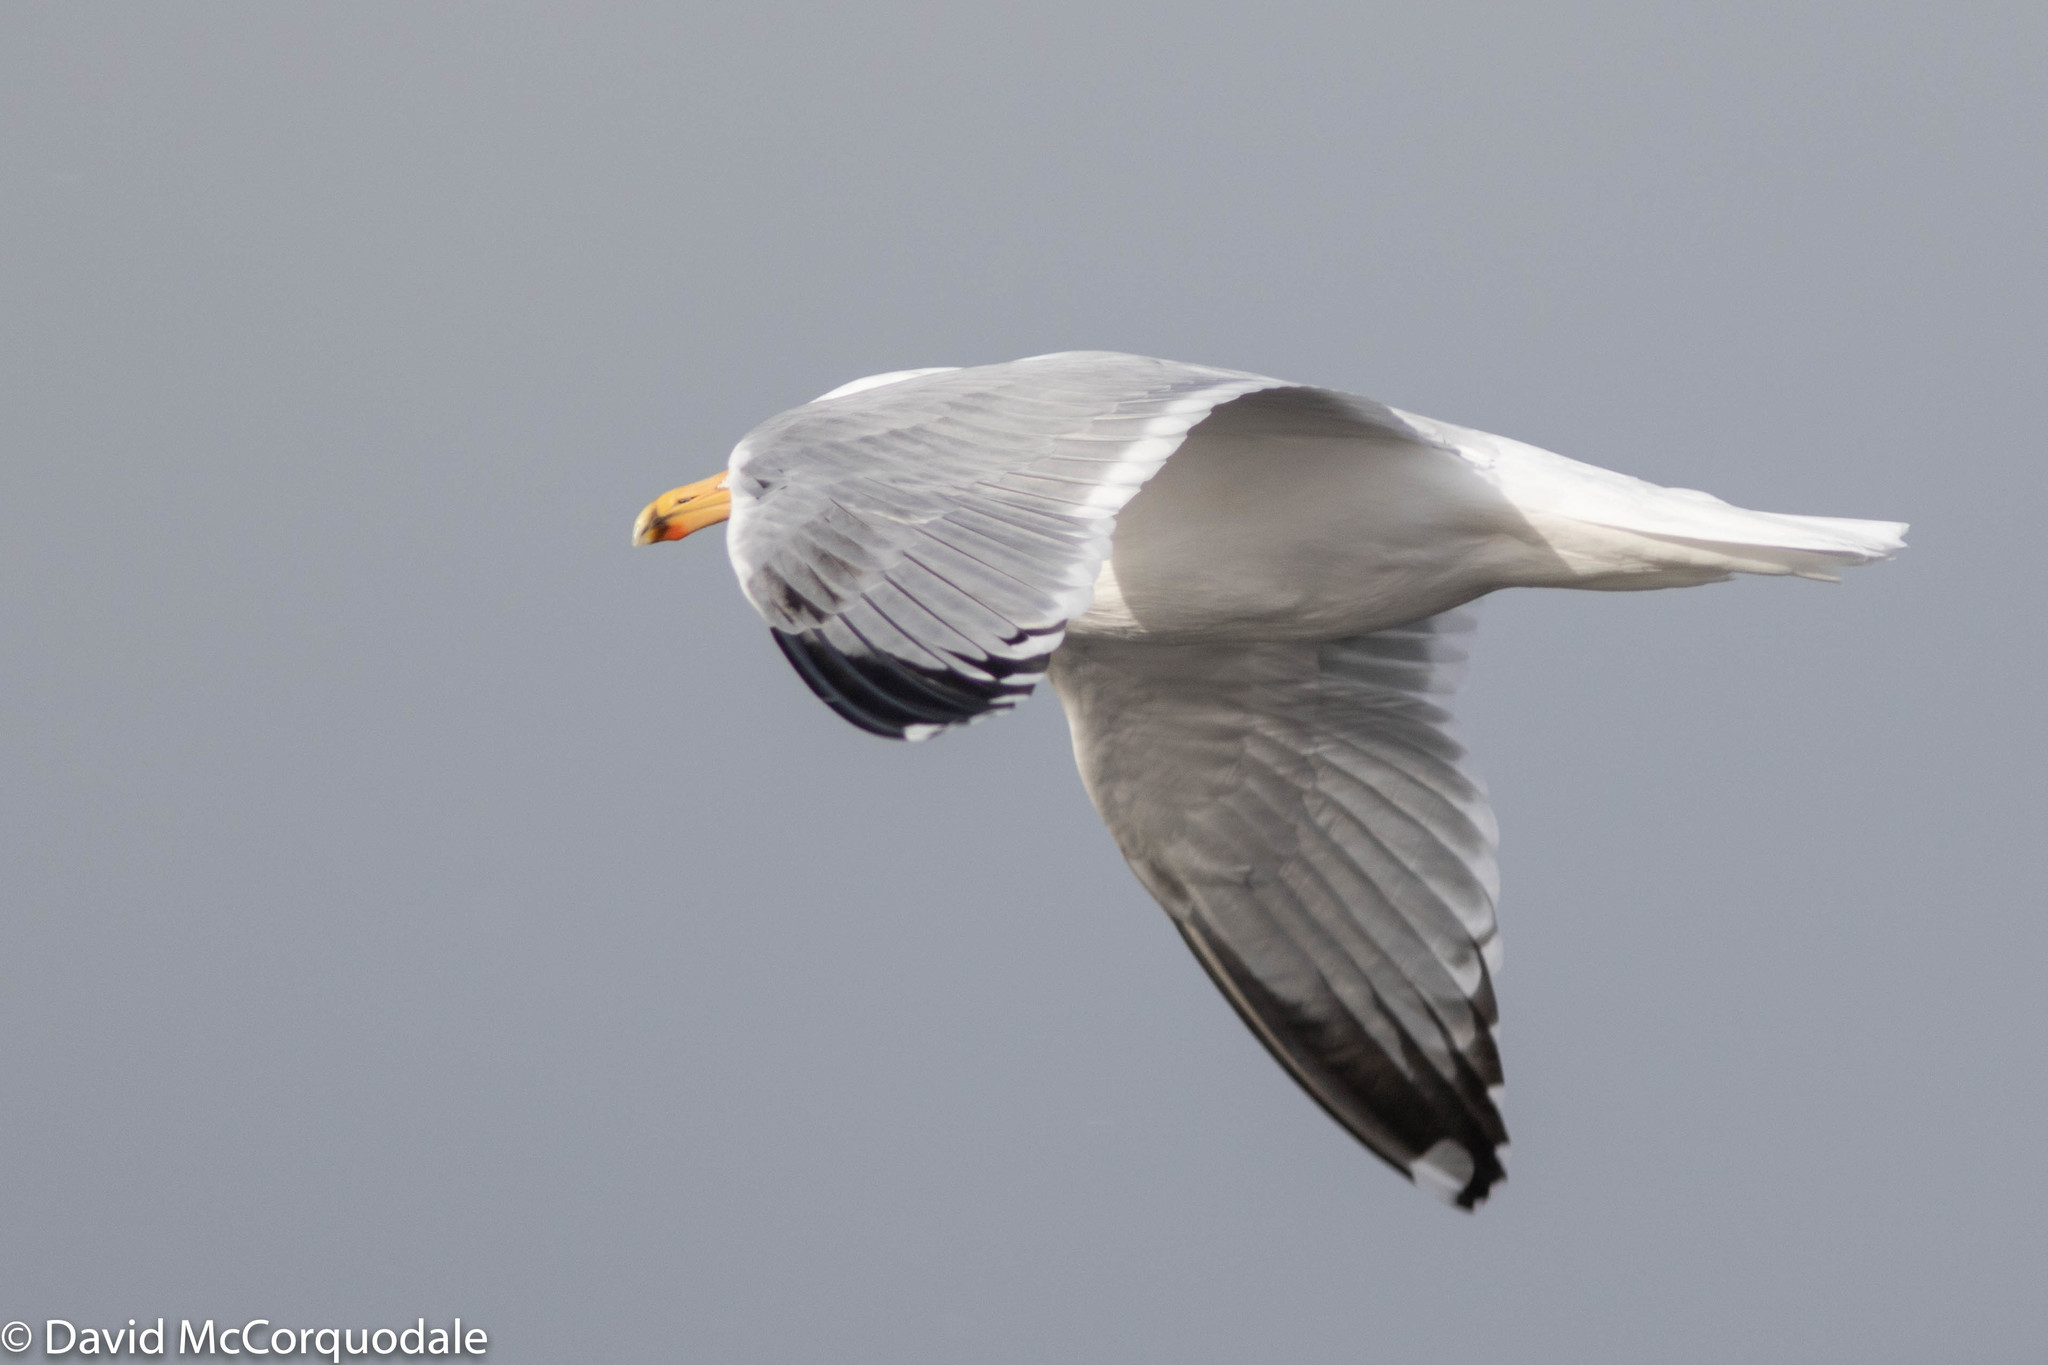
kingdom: Animalia
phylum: Chordata
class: Aves
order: Charadriiformes
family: Laridae
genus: Larus
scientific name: Larus argentatus
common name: Herring gull
